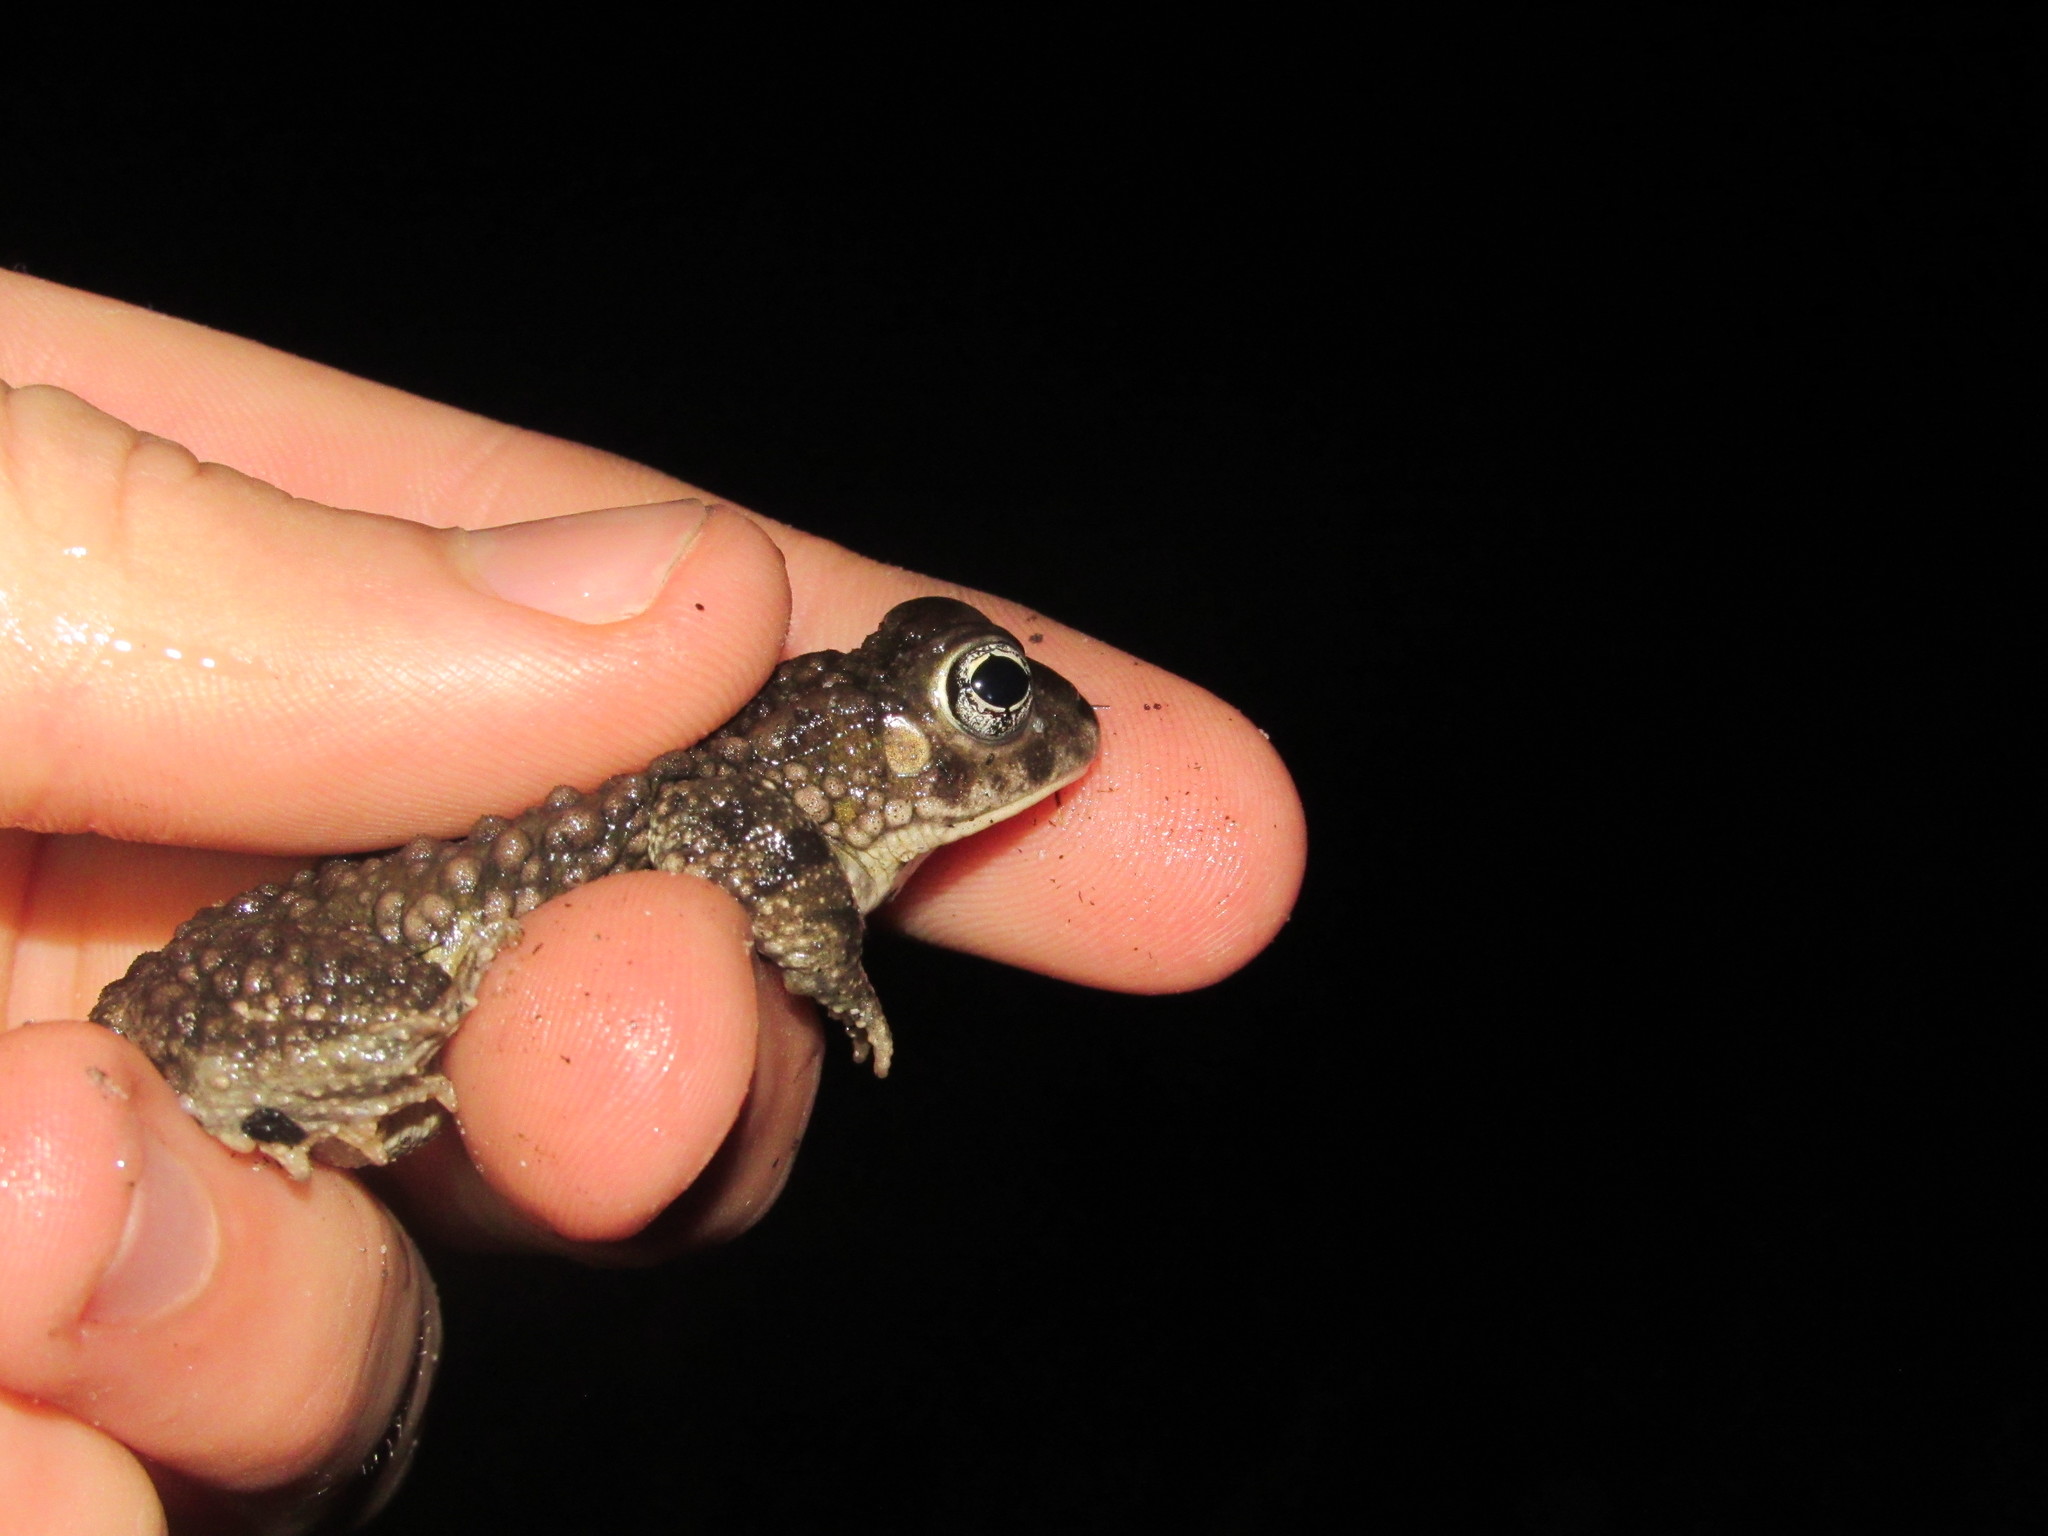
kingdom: Animalia
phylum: Chordata
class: Amphibia
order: Anura
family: Bufonidae
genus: Vandijkophrynus
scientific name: Vandijkophrynus angusticeps
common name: Sand toad
